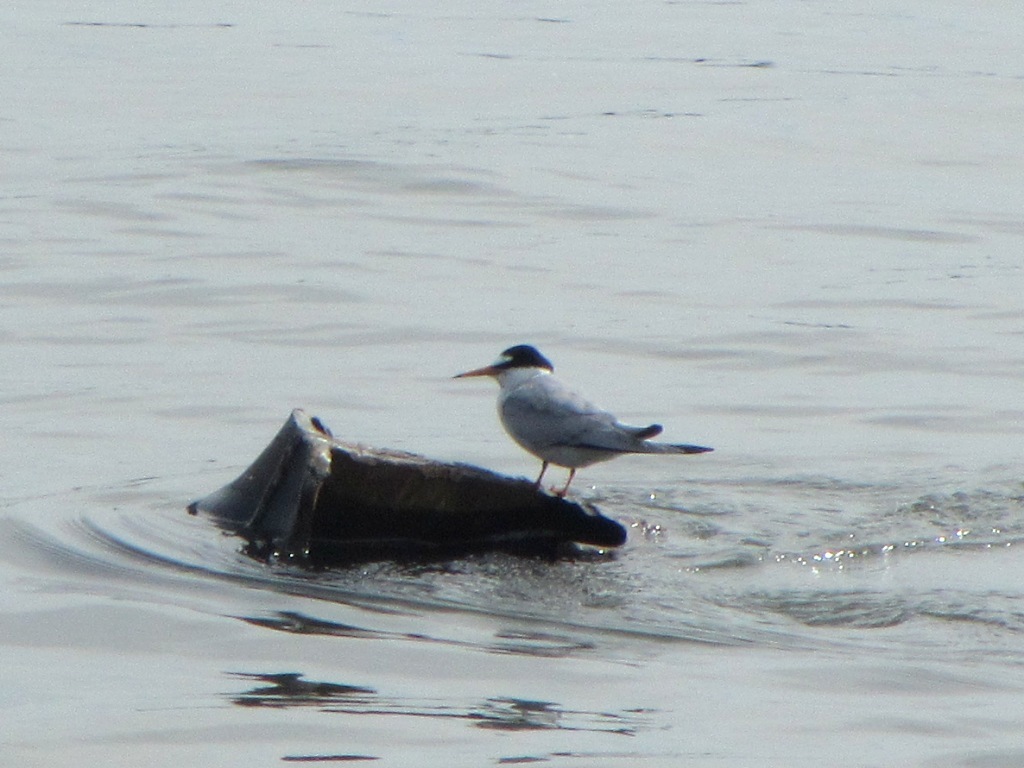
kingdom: Animalia
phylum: Chordata
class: Aves
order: Charadriiformes
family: Laridae
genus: Sternula
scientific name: Sternula albifrons
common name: Little tern
